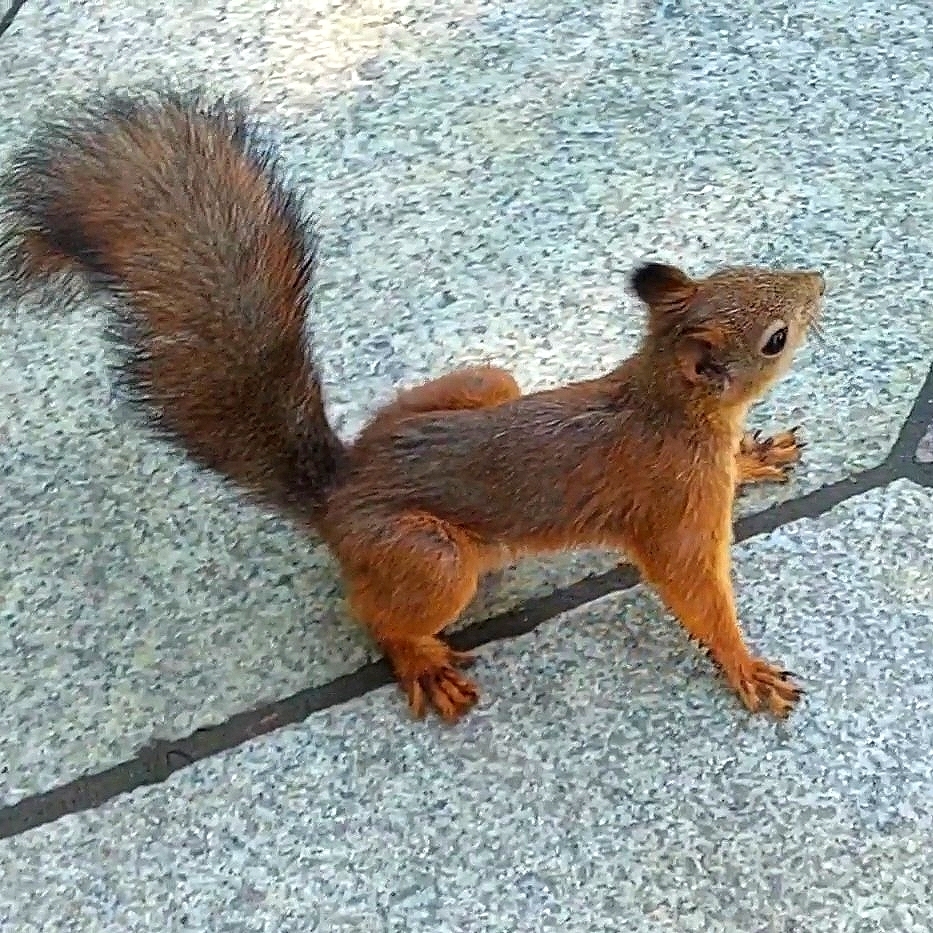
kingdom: Animalia
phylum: Chordata
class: Mammalia
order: Rodentia
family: Sciuridae
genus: Sciurus
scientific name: Sciurus vulgaris
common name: Eurasian red squirrel
